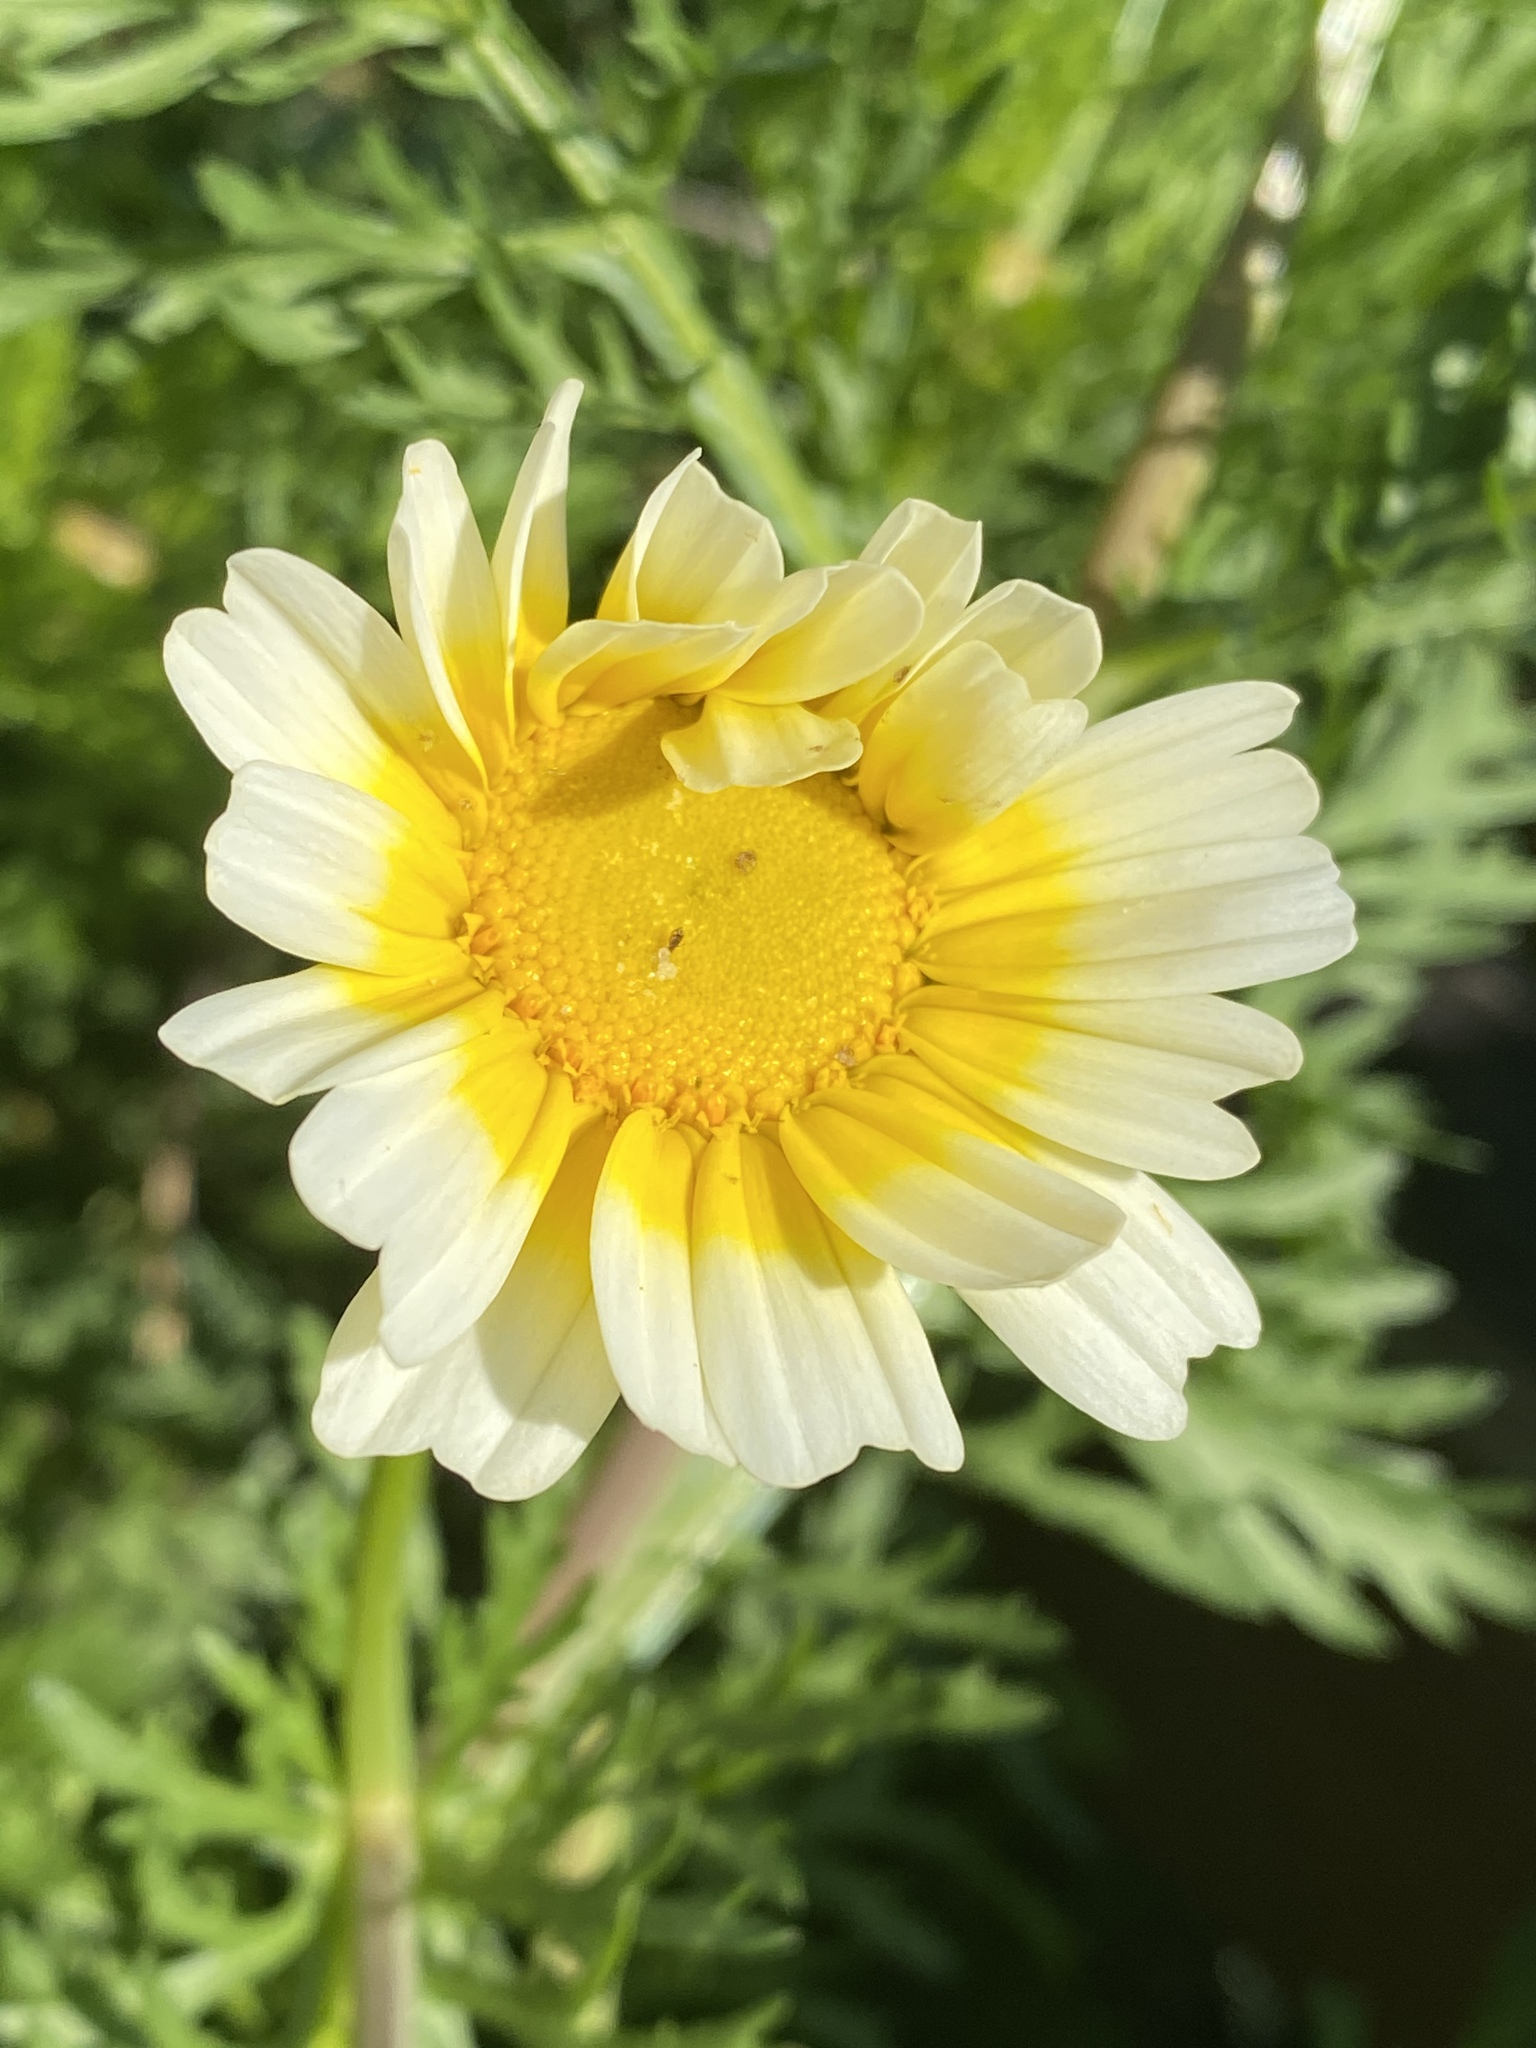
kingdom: Plantae
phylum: Tracheophyta
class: Magnoliopsida
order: Asterales
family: Asteraceae
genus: Glebionis
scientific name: Glebionis coronaria
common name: Crowndaisy
